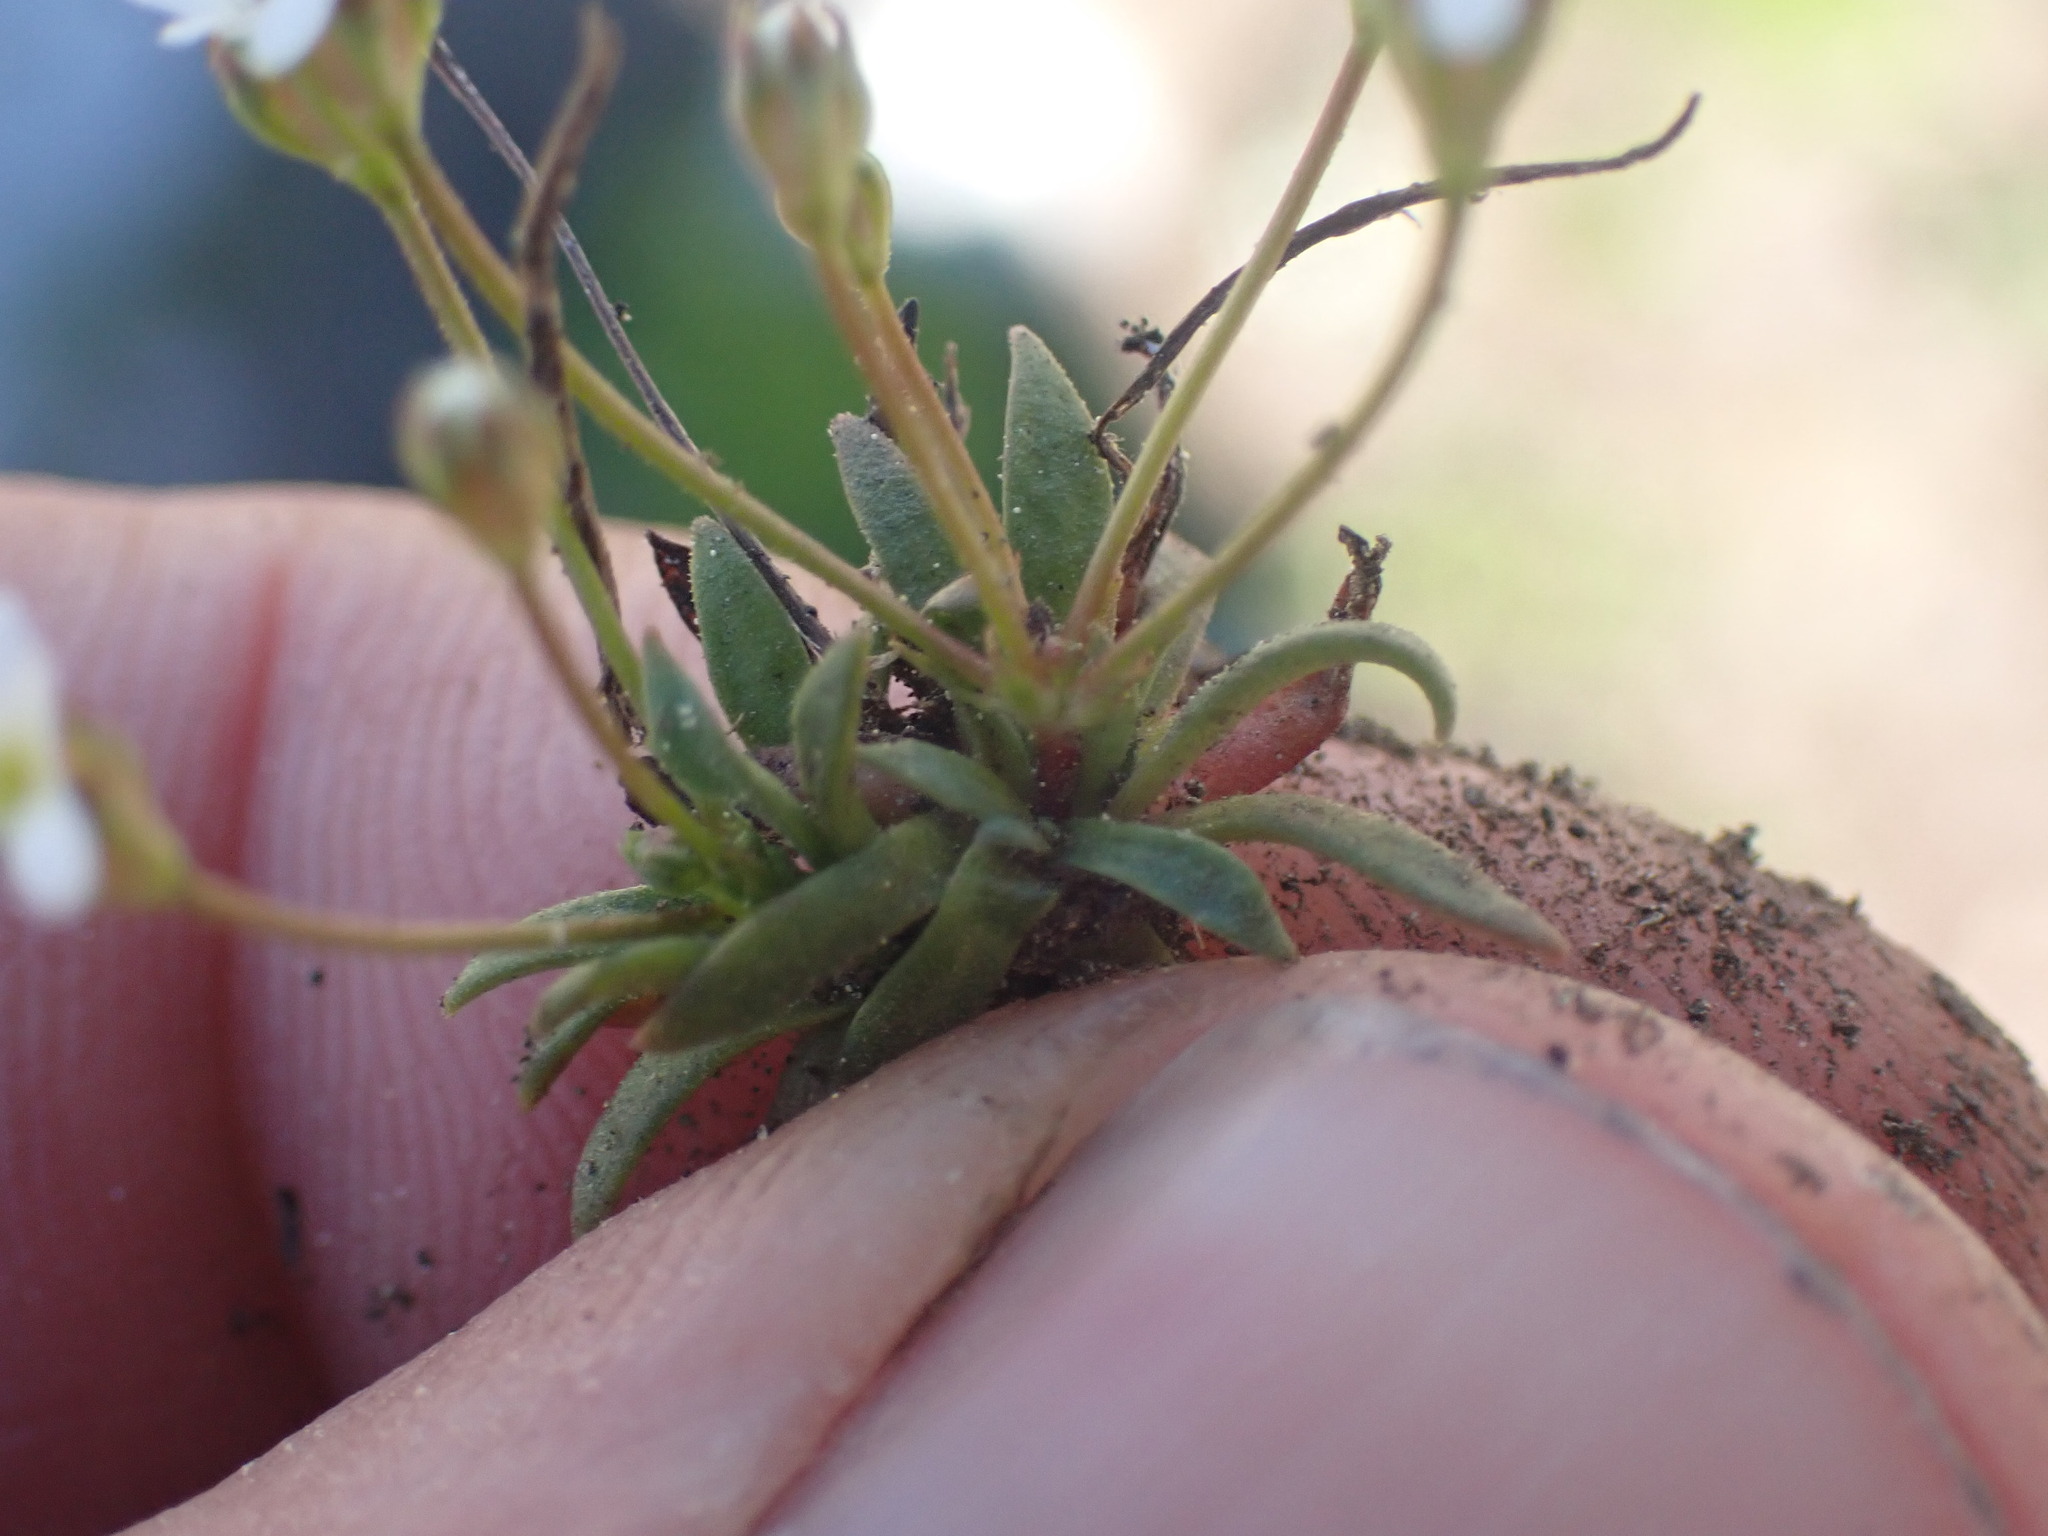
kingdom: Plantae
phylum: Tracheophyta
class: Magnoliopsida
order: Ericales
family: Primulaceae
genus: Androsace
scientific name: Androsace septentrionalis
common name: Hairy northern fairy-candelabra
